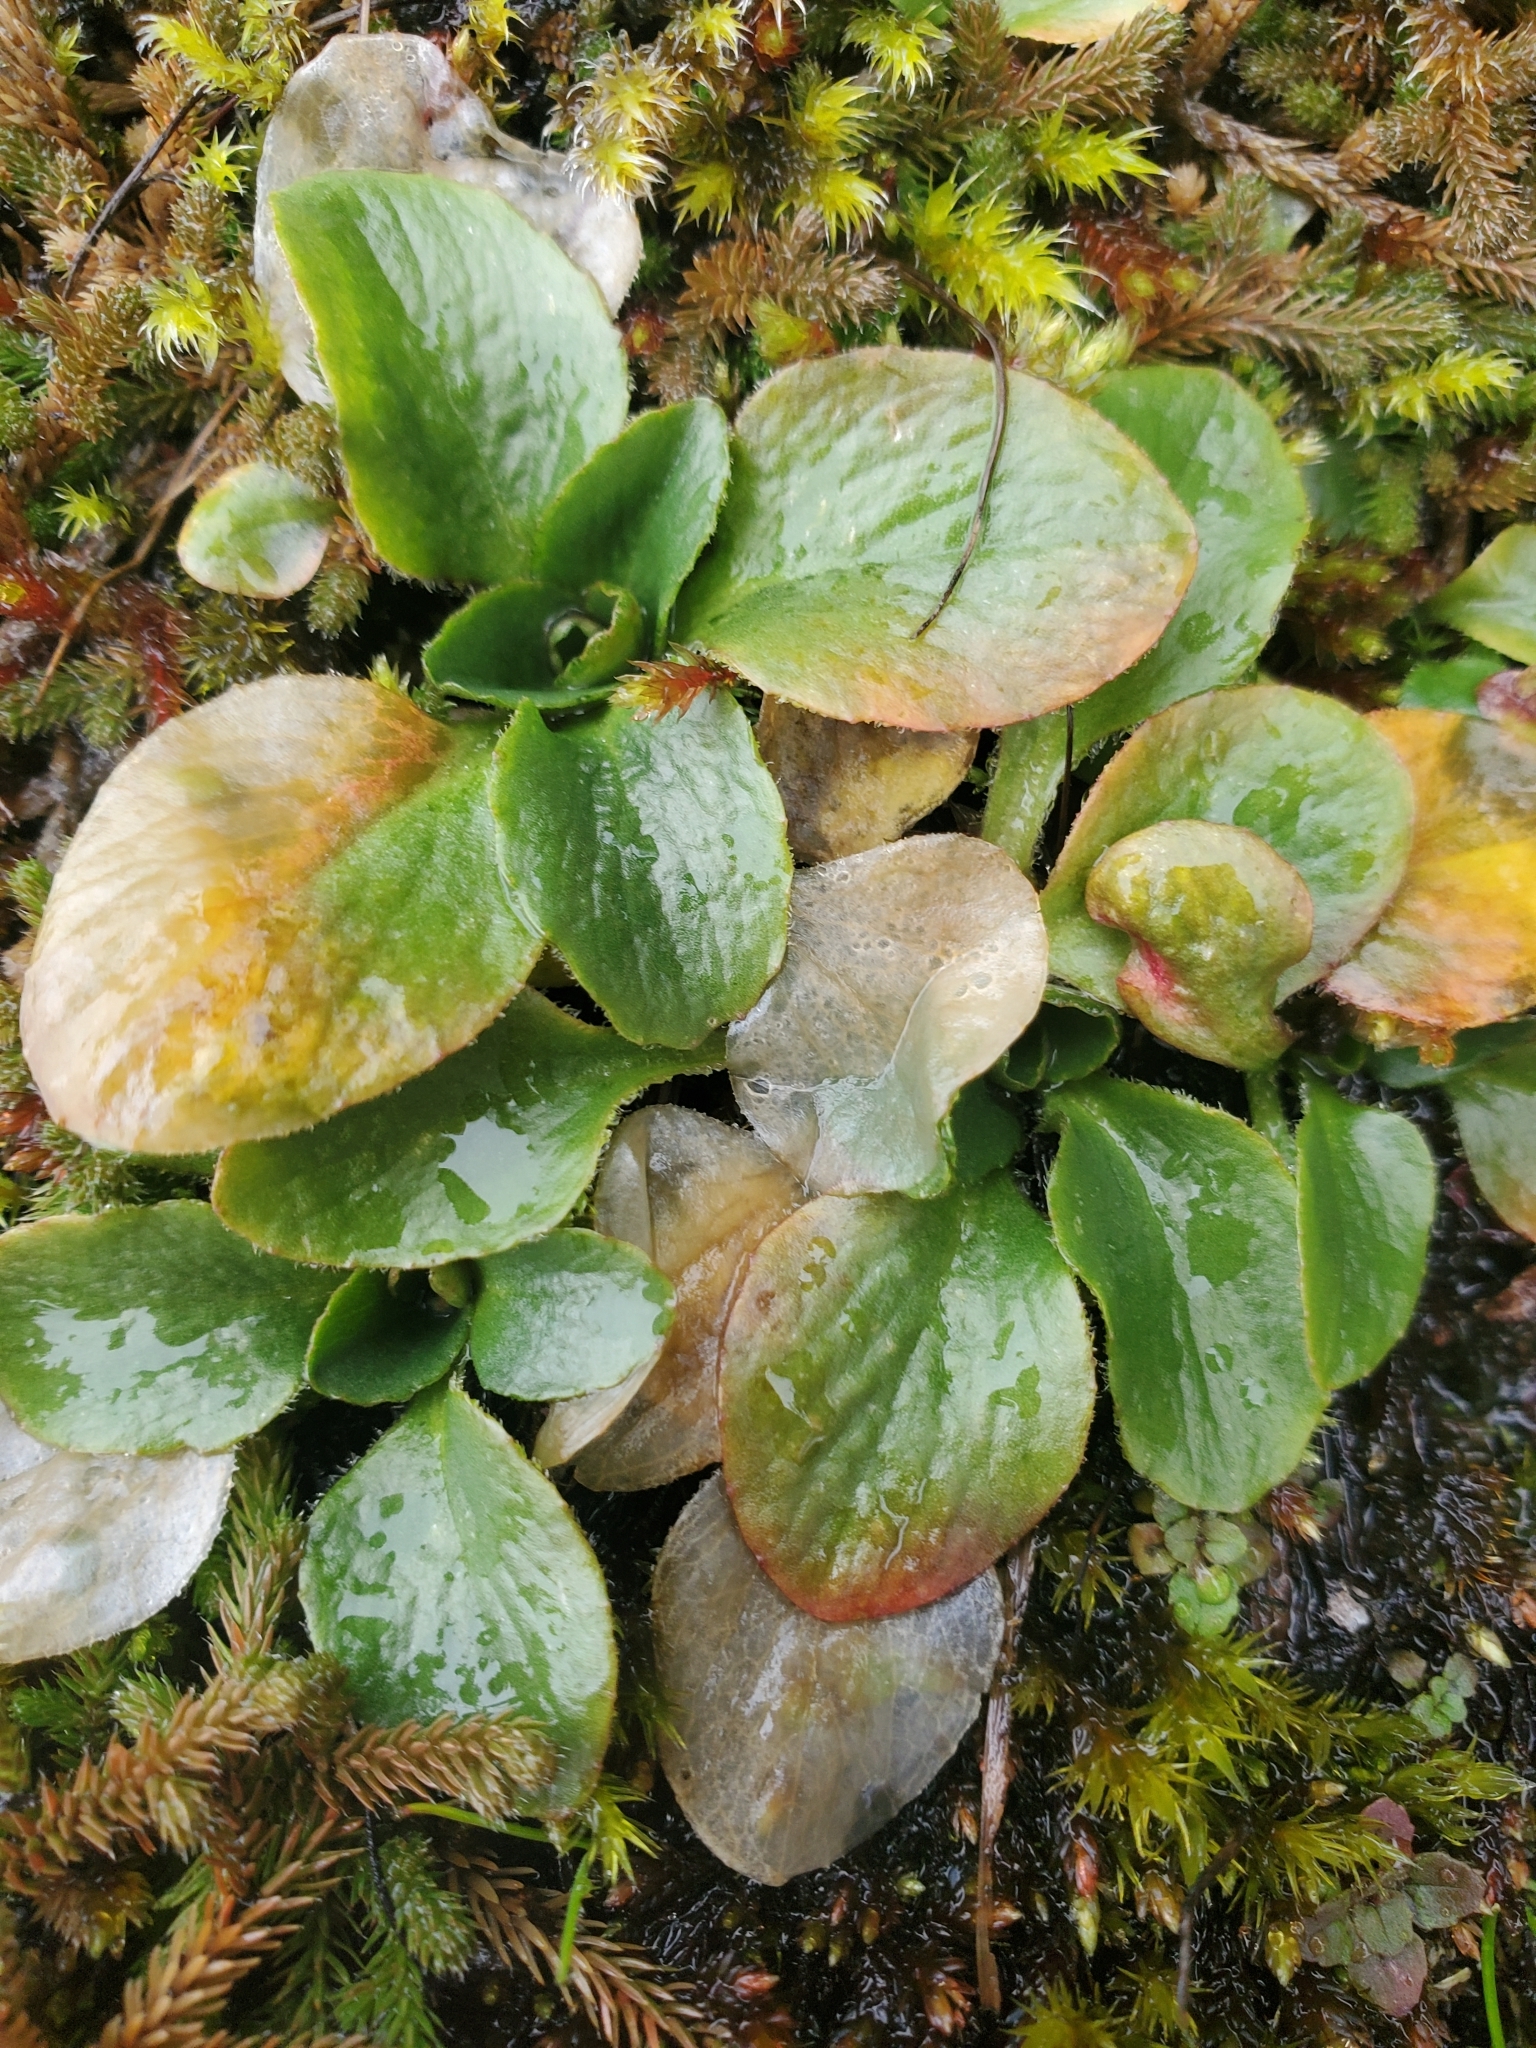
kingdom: Plantae
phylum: Tracheophyta
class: Magnoliopsida
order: Saxifragales
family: Saxifragaceae
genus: Micranthes
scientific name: Micranthes integrifolia
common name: Wholeleaf saxifrage
